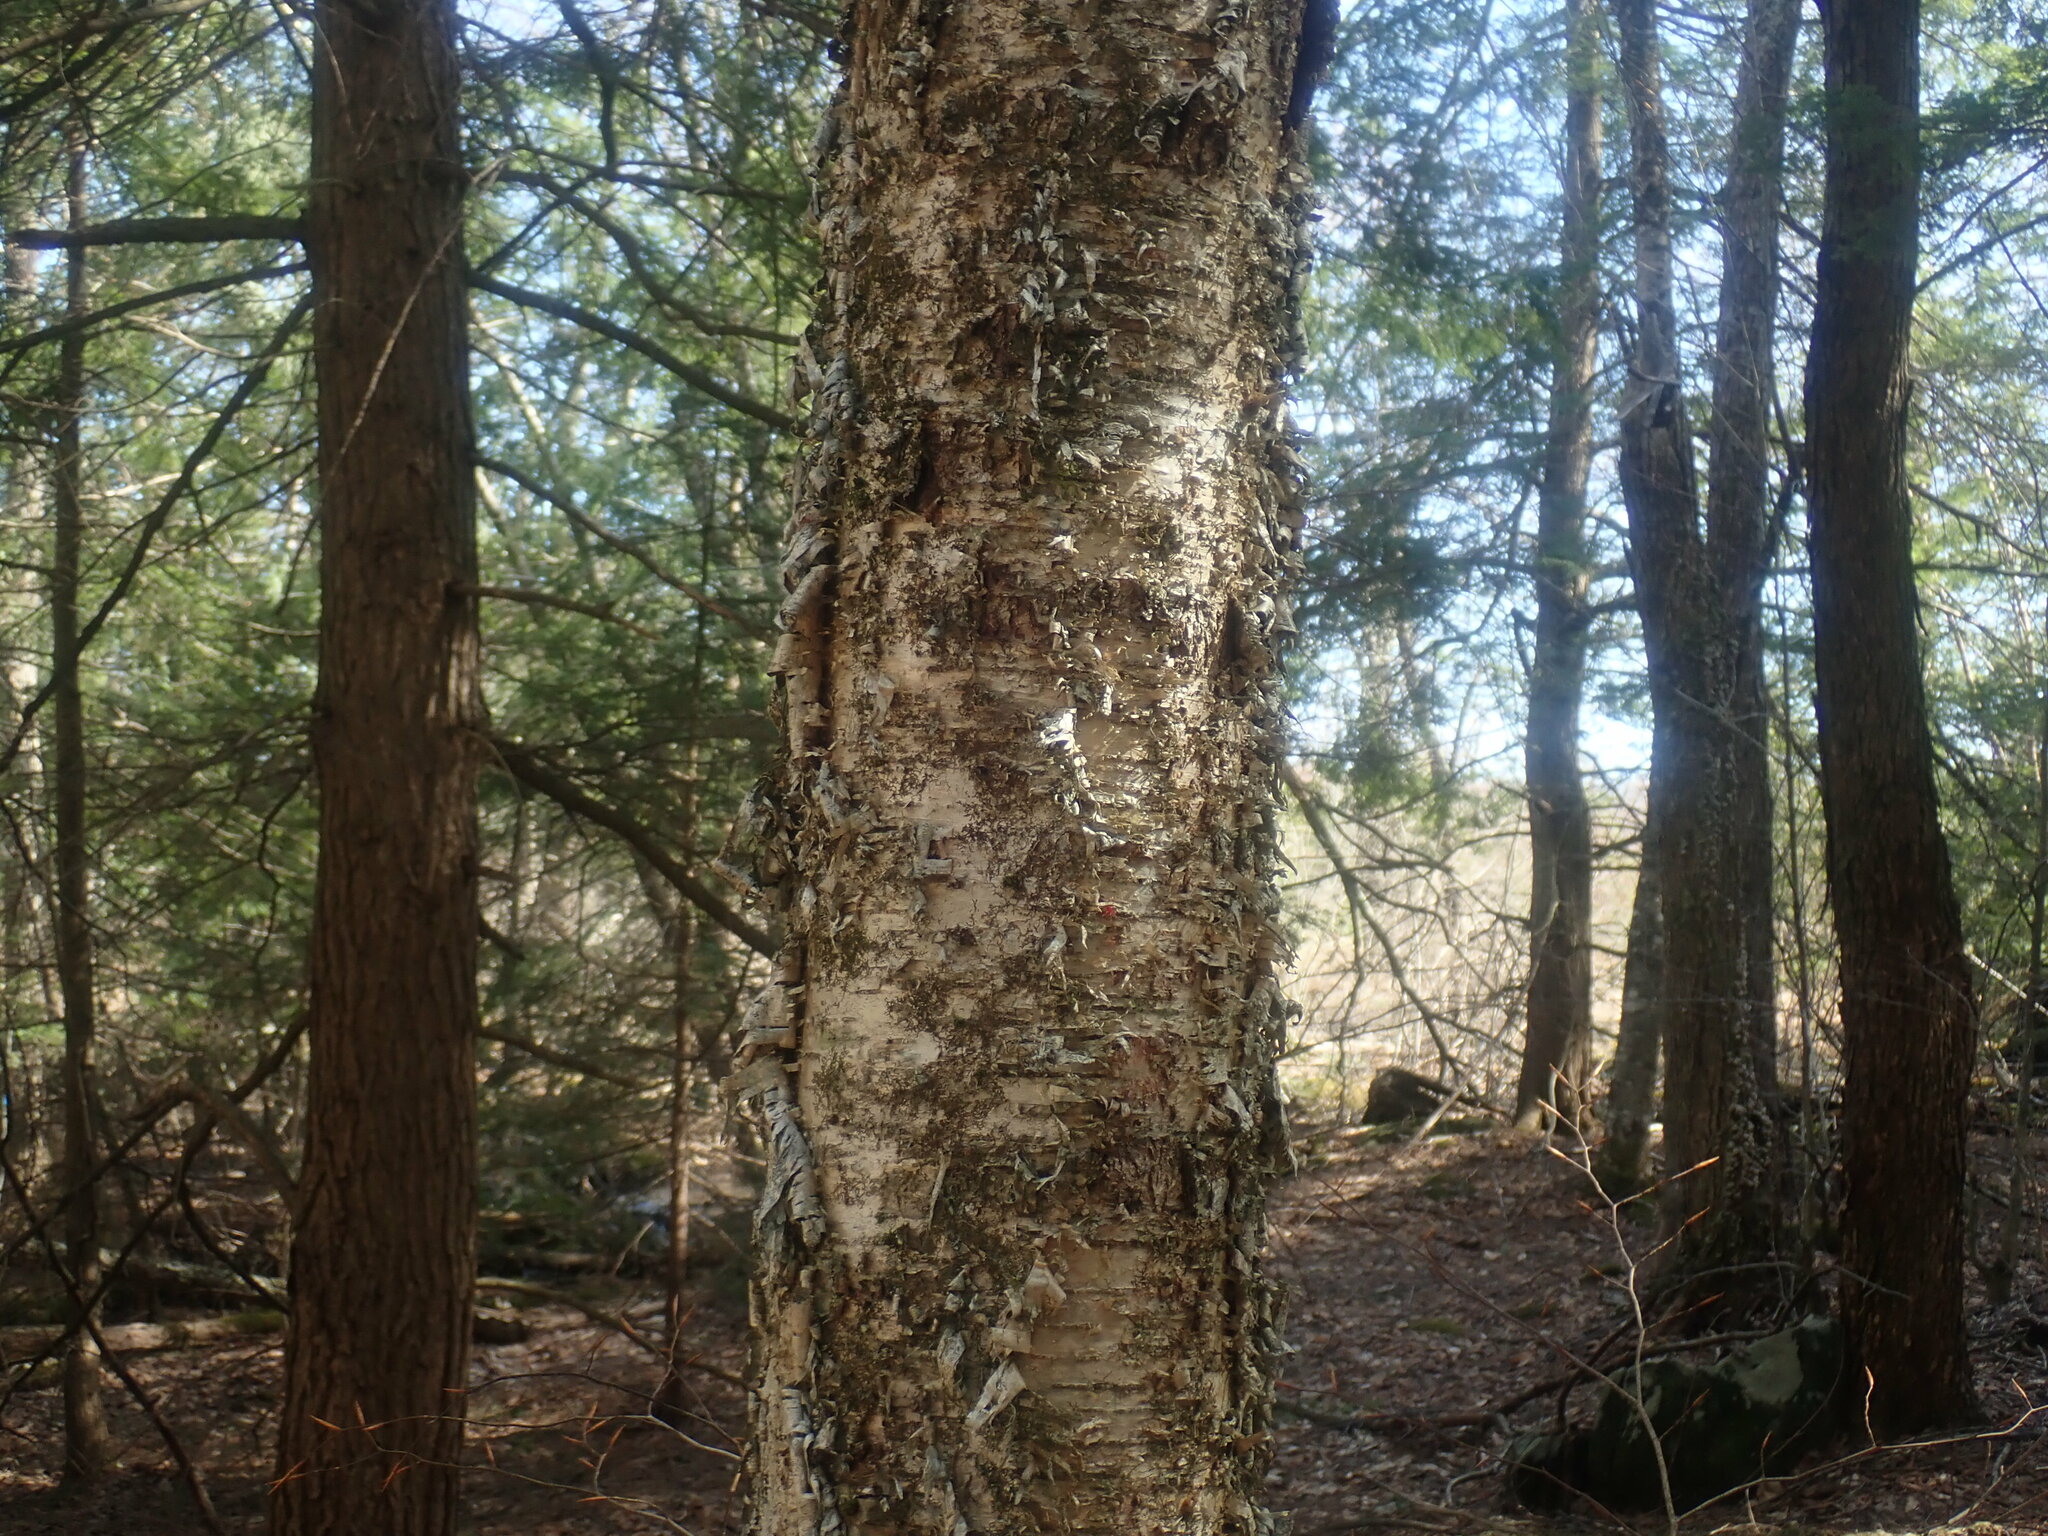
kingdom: Plantae
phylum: Tracheophyta
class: Magnoliopsida
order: Fagales
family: Betulaceae
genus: Betula
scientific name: Betula alleghaniensis
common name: Yellow birch
